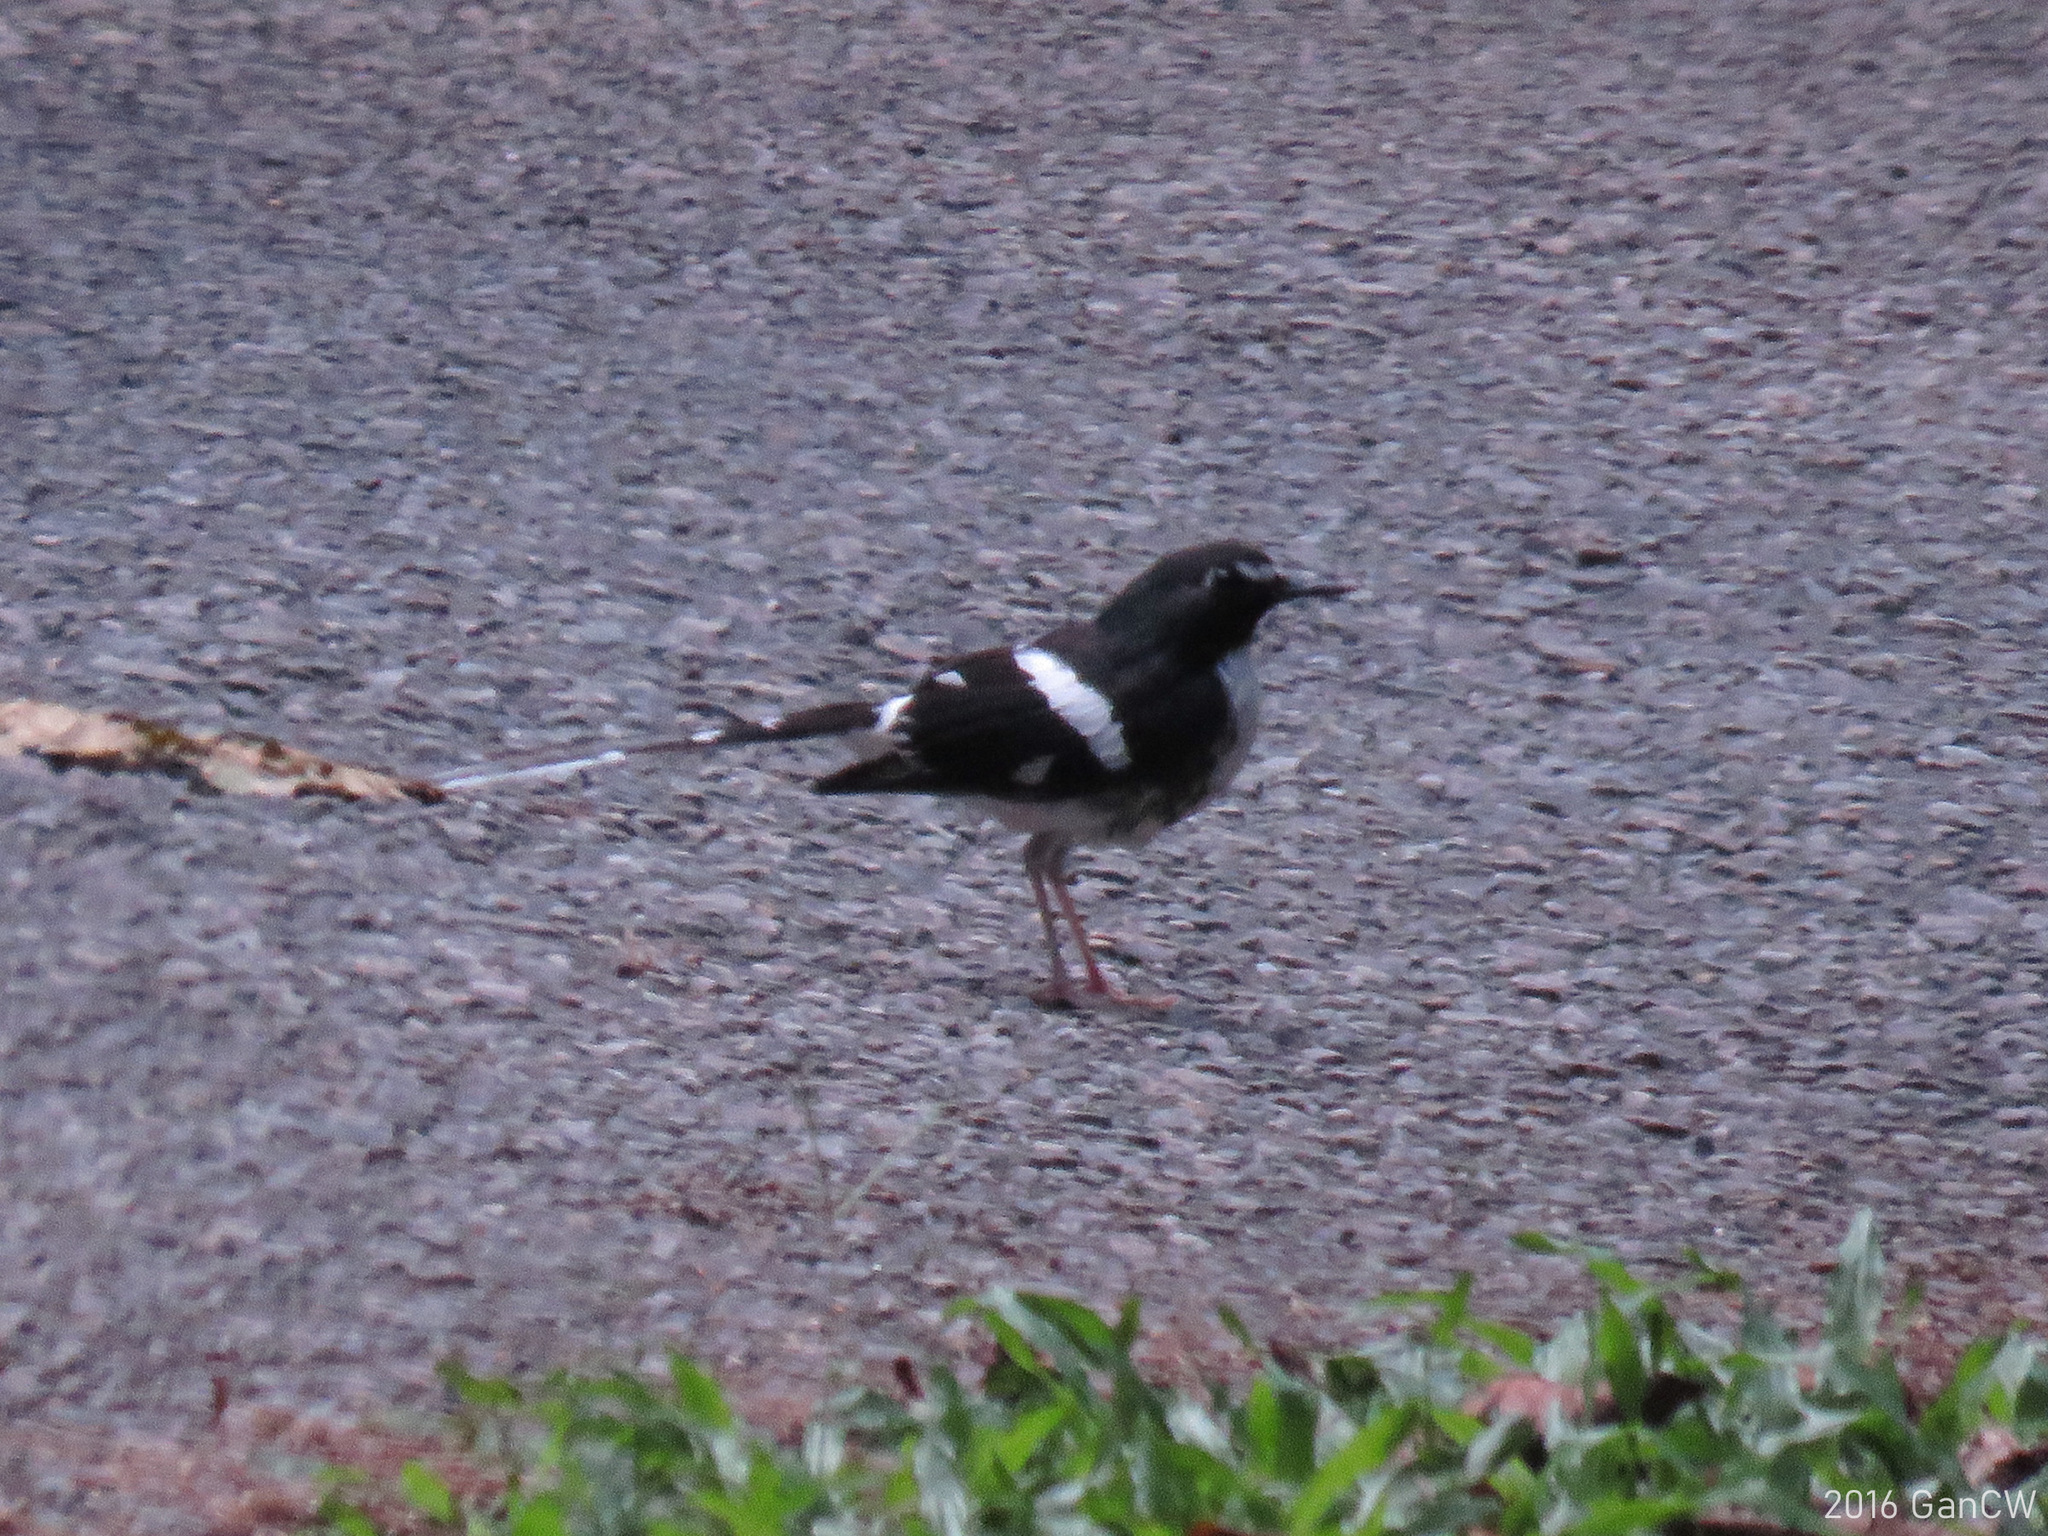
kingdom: Animalia
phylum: Chordata
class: Aves
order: Passeriformes
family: Muscicapidae
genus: Enicurus
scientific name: Enicurus schistaceus
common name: Slaty-backed forktail
